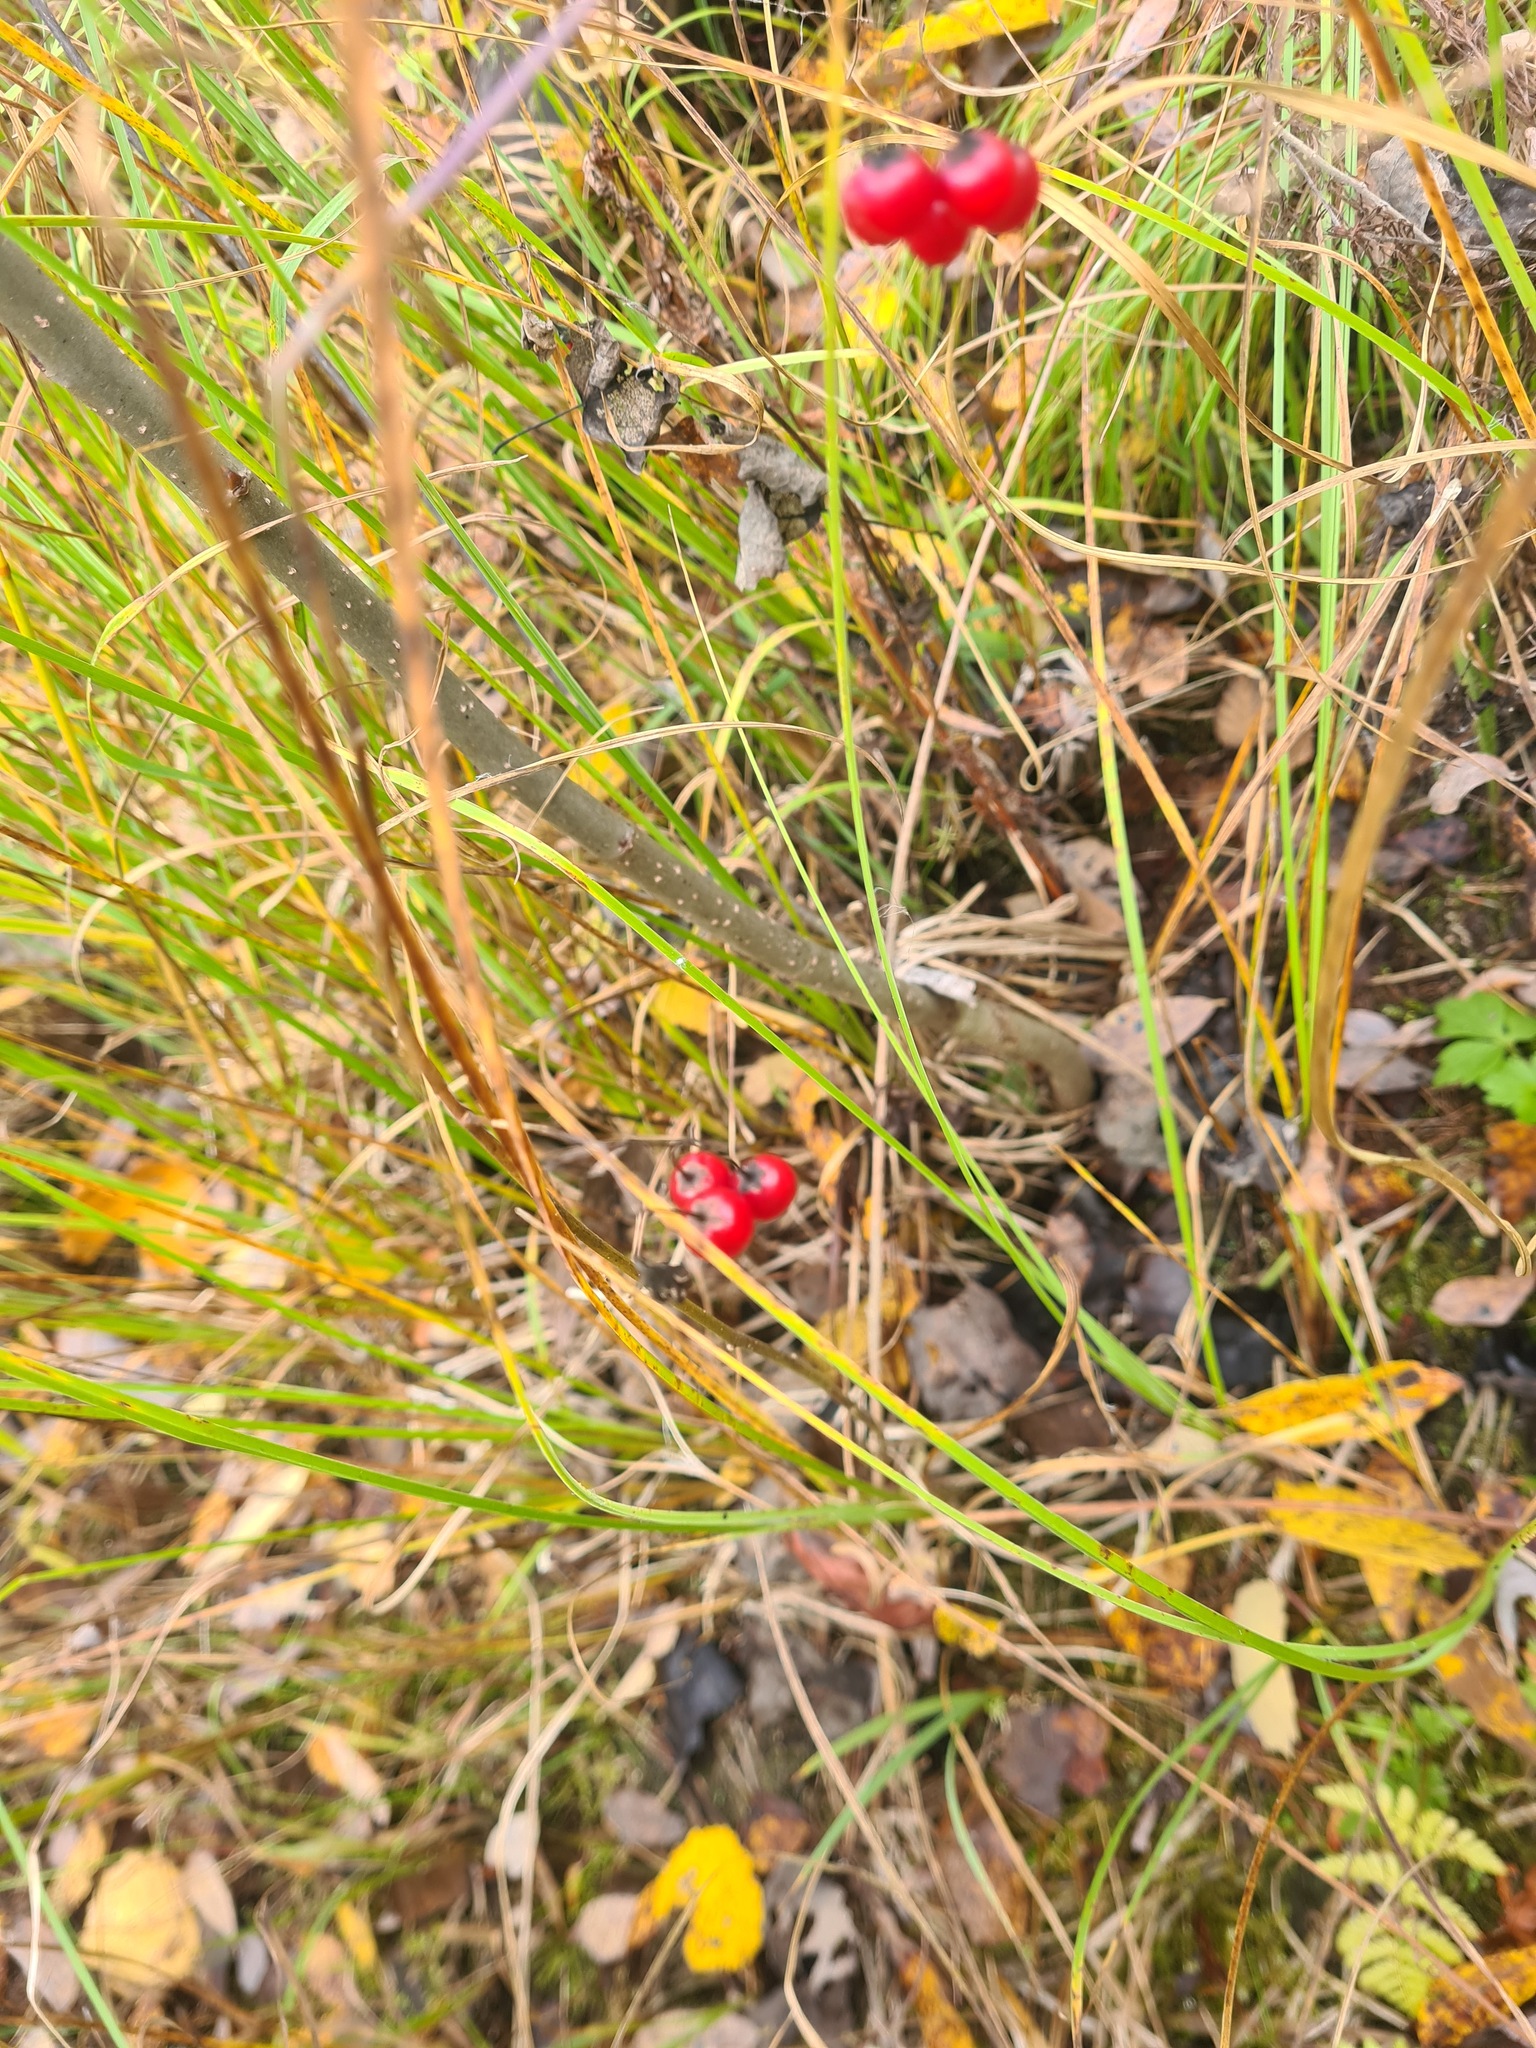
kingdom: Plantae
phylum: Tracheophyta
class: Magnoliopsida
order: Solanales
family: Solanaceae
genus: Solanum
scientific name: Solanum dulcamara
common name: Climbing nightshade
